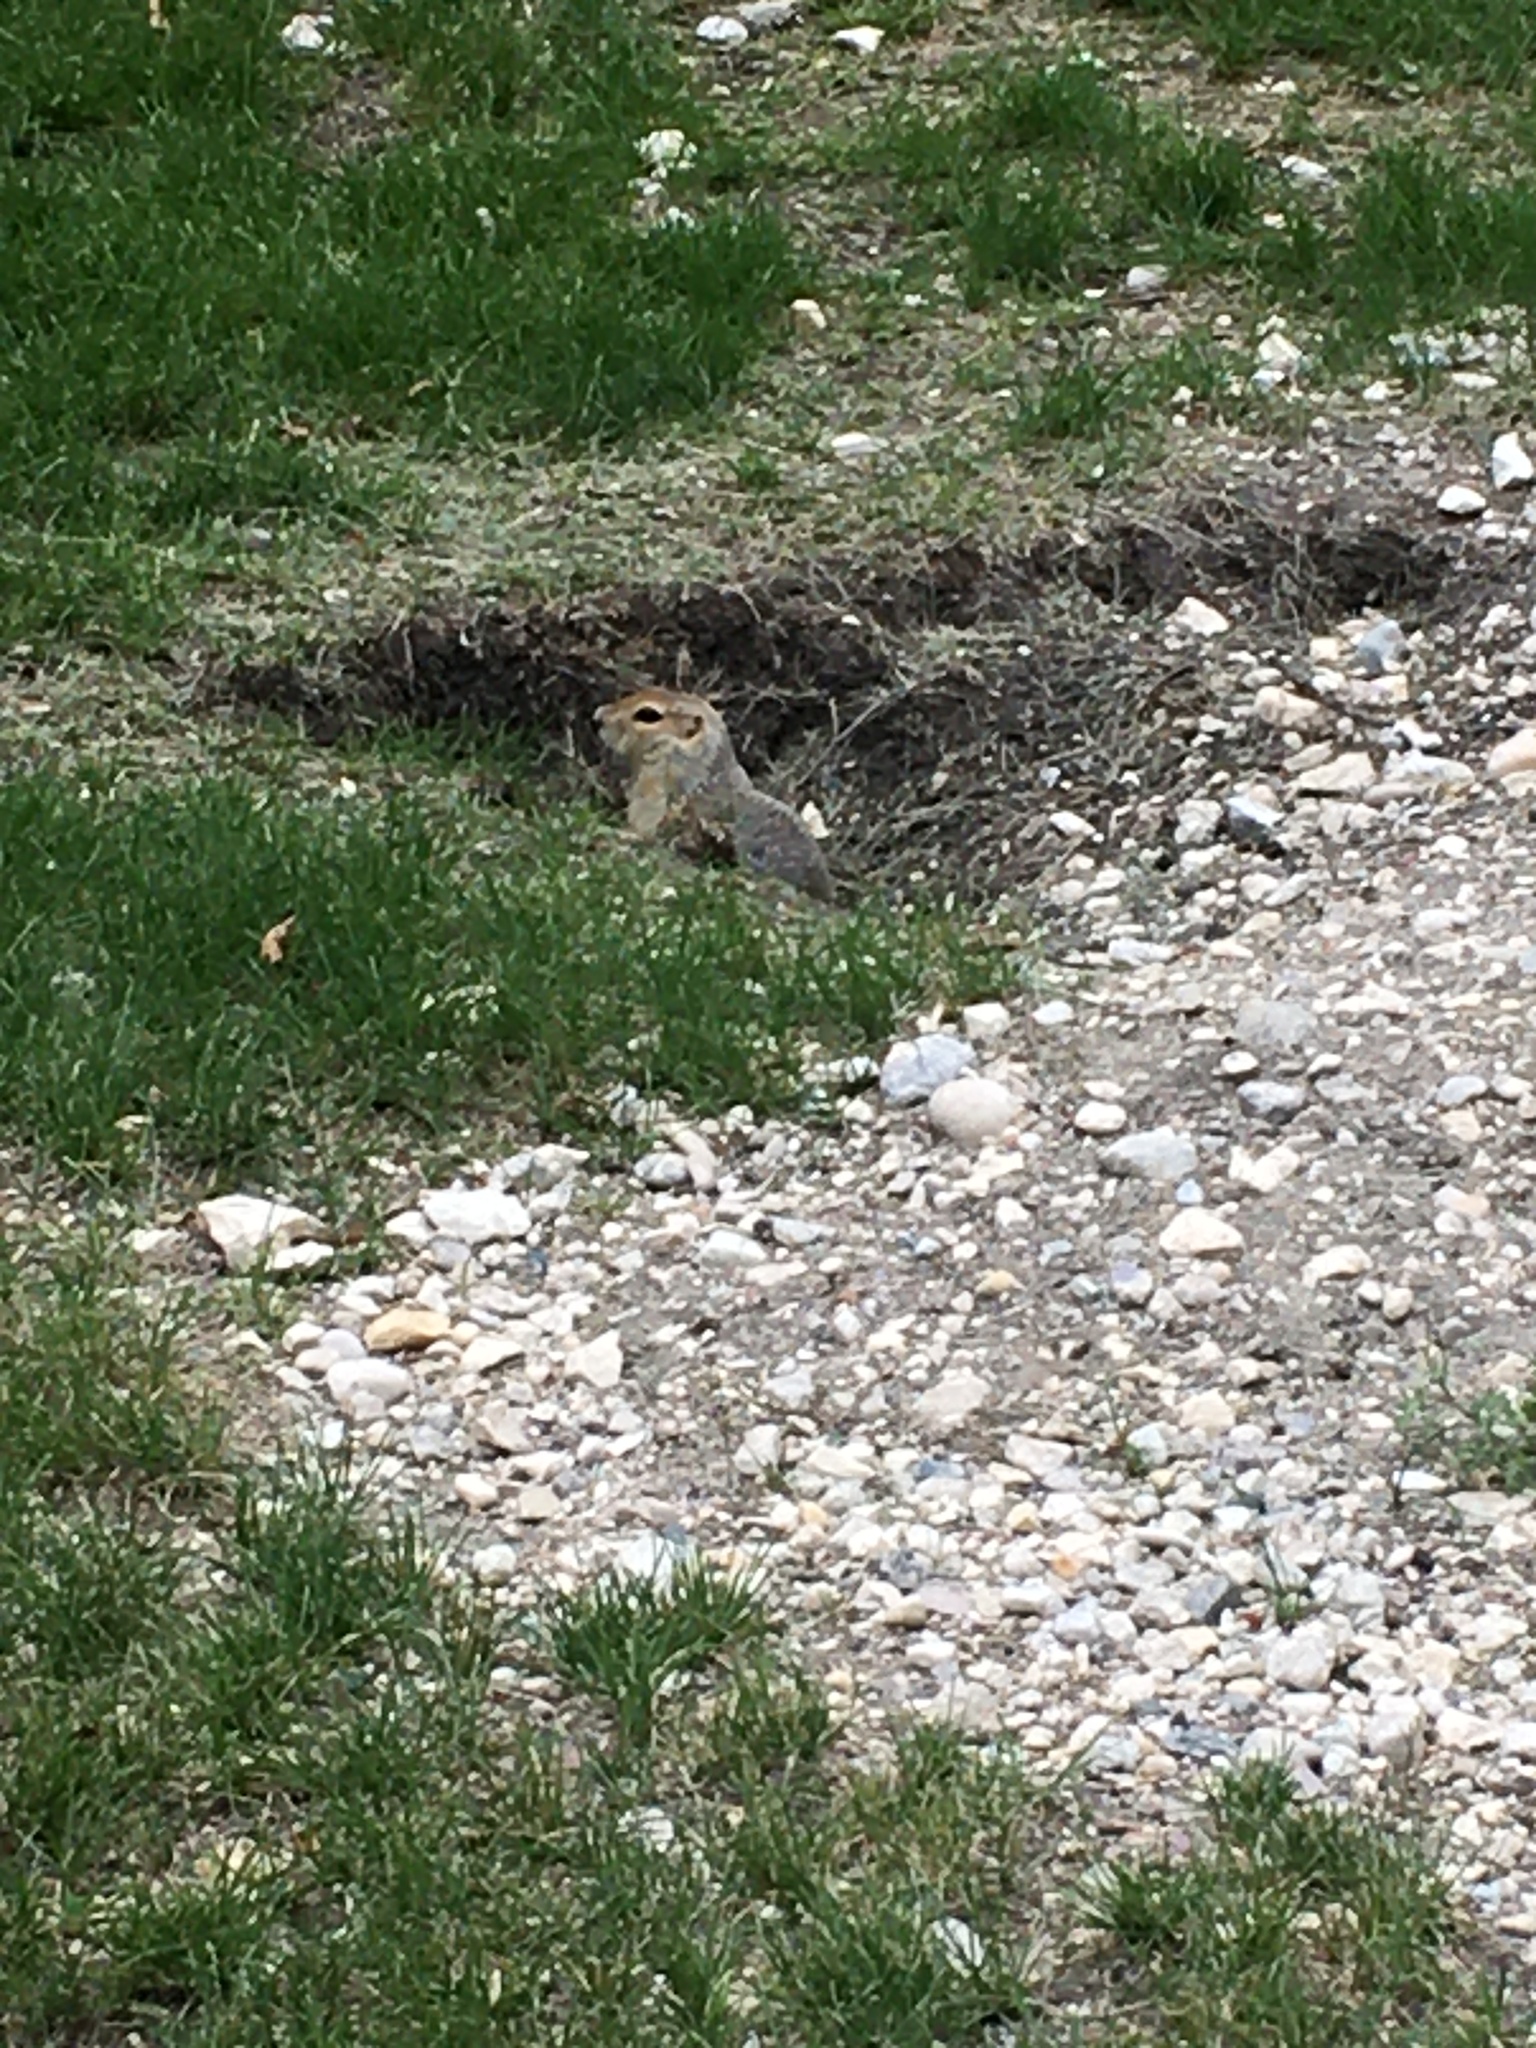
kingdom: Animalia
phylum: Chordata
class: Mammalia
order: Rodentia
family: Sciuridae
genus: Urocitellus
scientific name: Urocitellus richardsonii
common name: Richardson's ground squirrel
